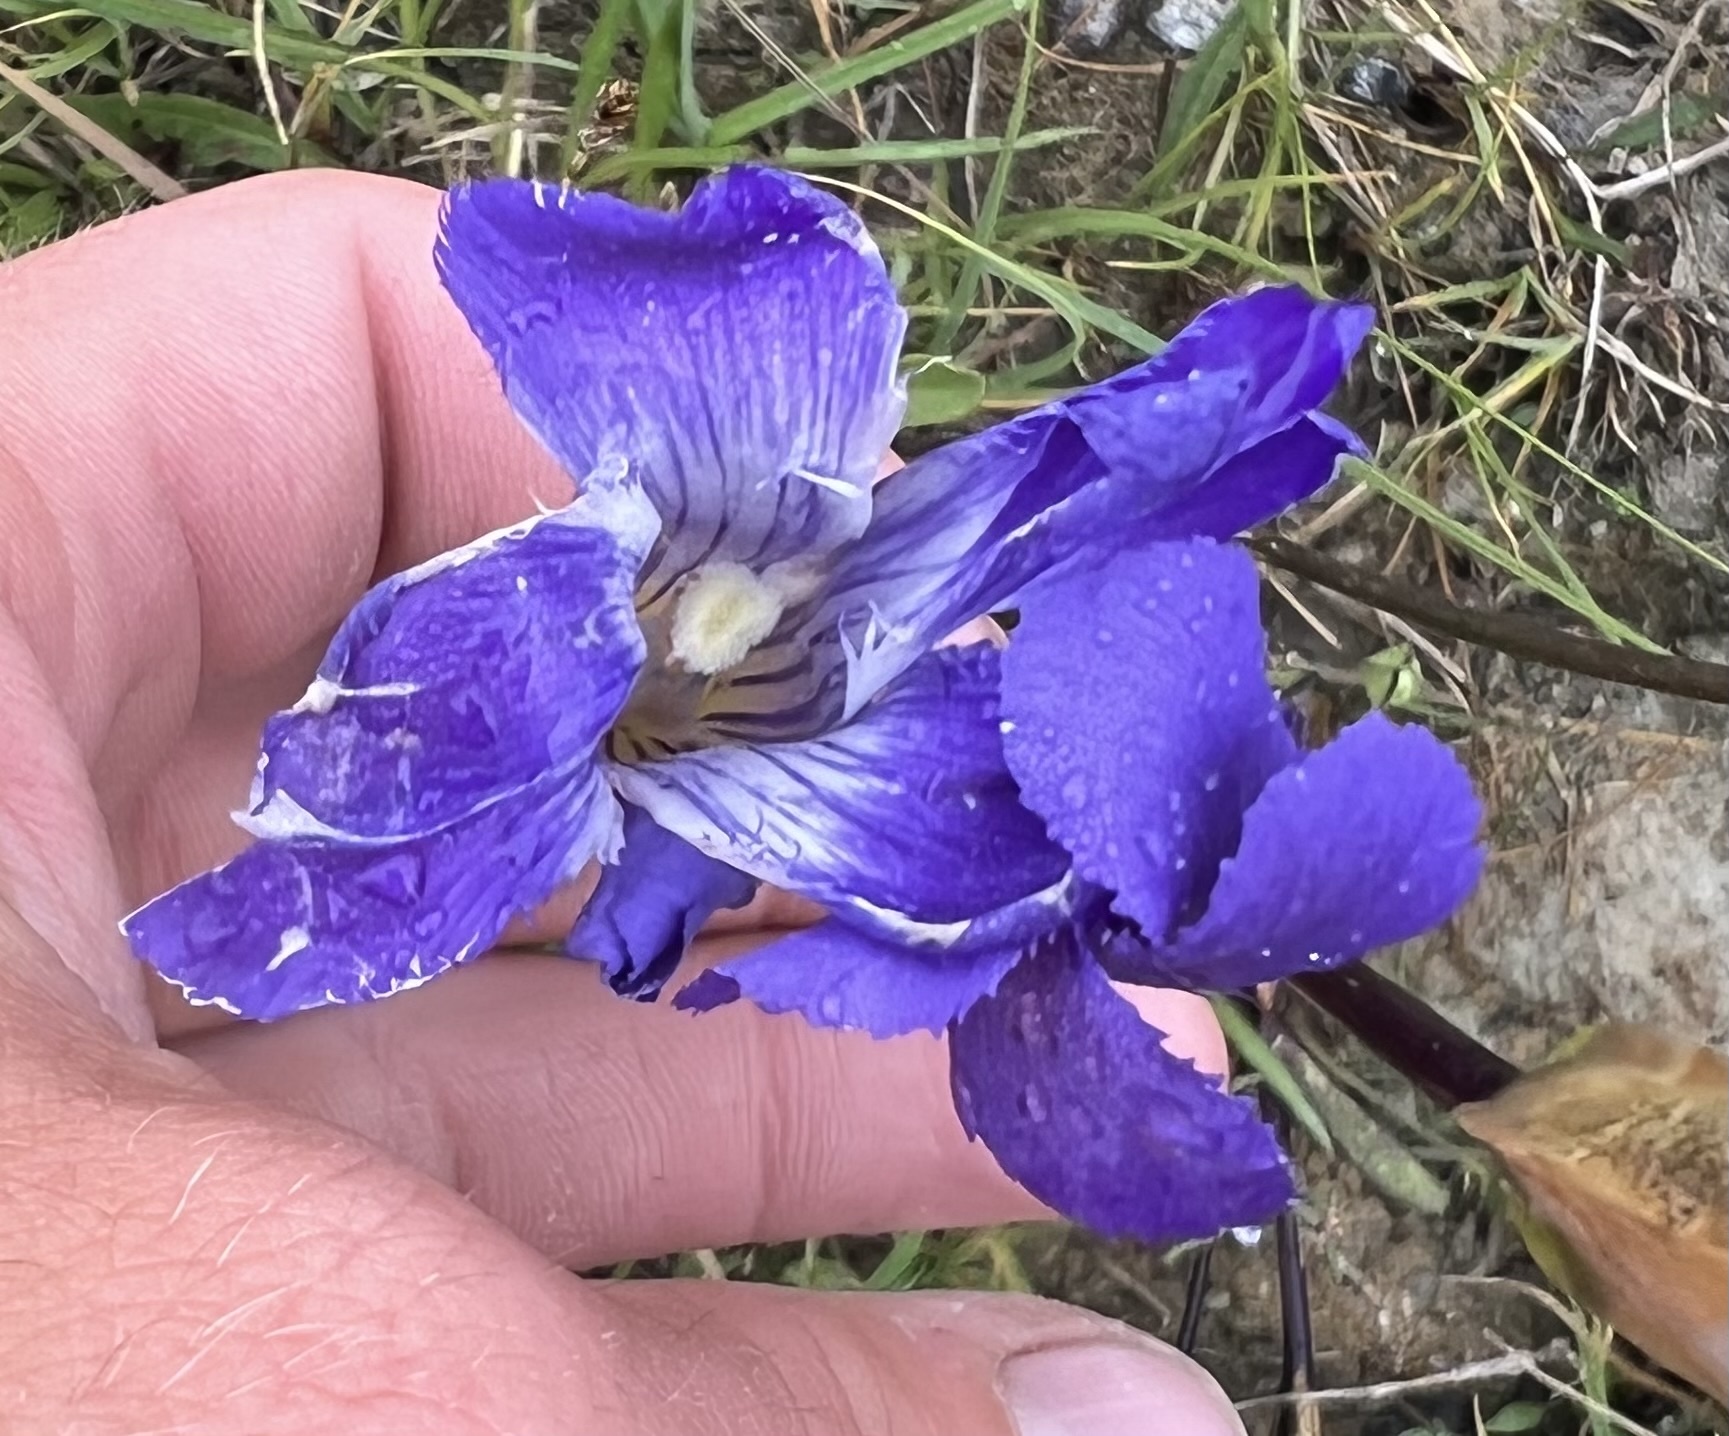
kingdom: Plantae
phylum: Tracheophyta
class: Magnoliopsida
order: Gentianales
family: Gentianaceae
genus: Gentianopsis
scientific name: Gentianopsis thermalis
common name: Rocky mountain fringed-gentian
